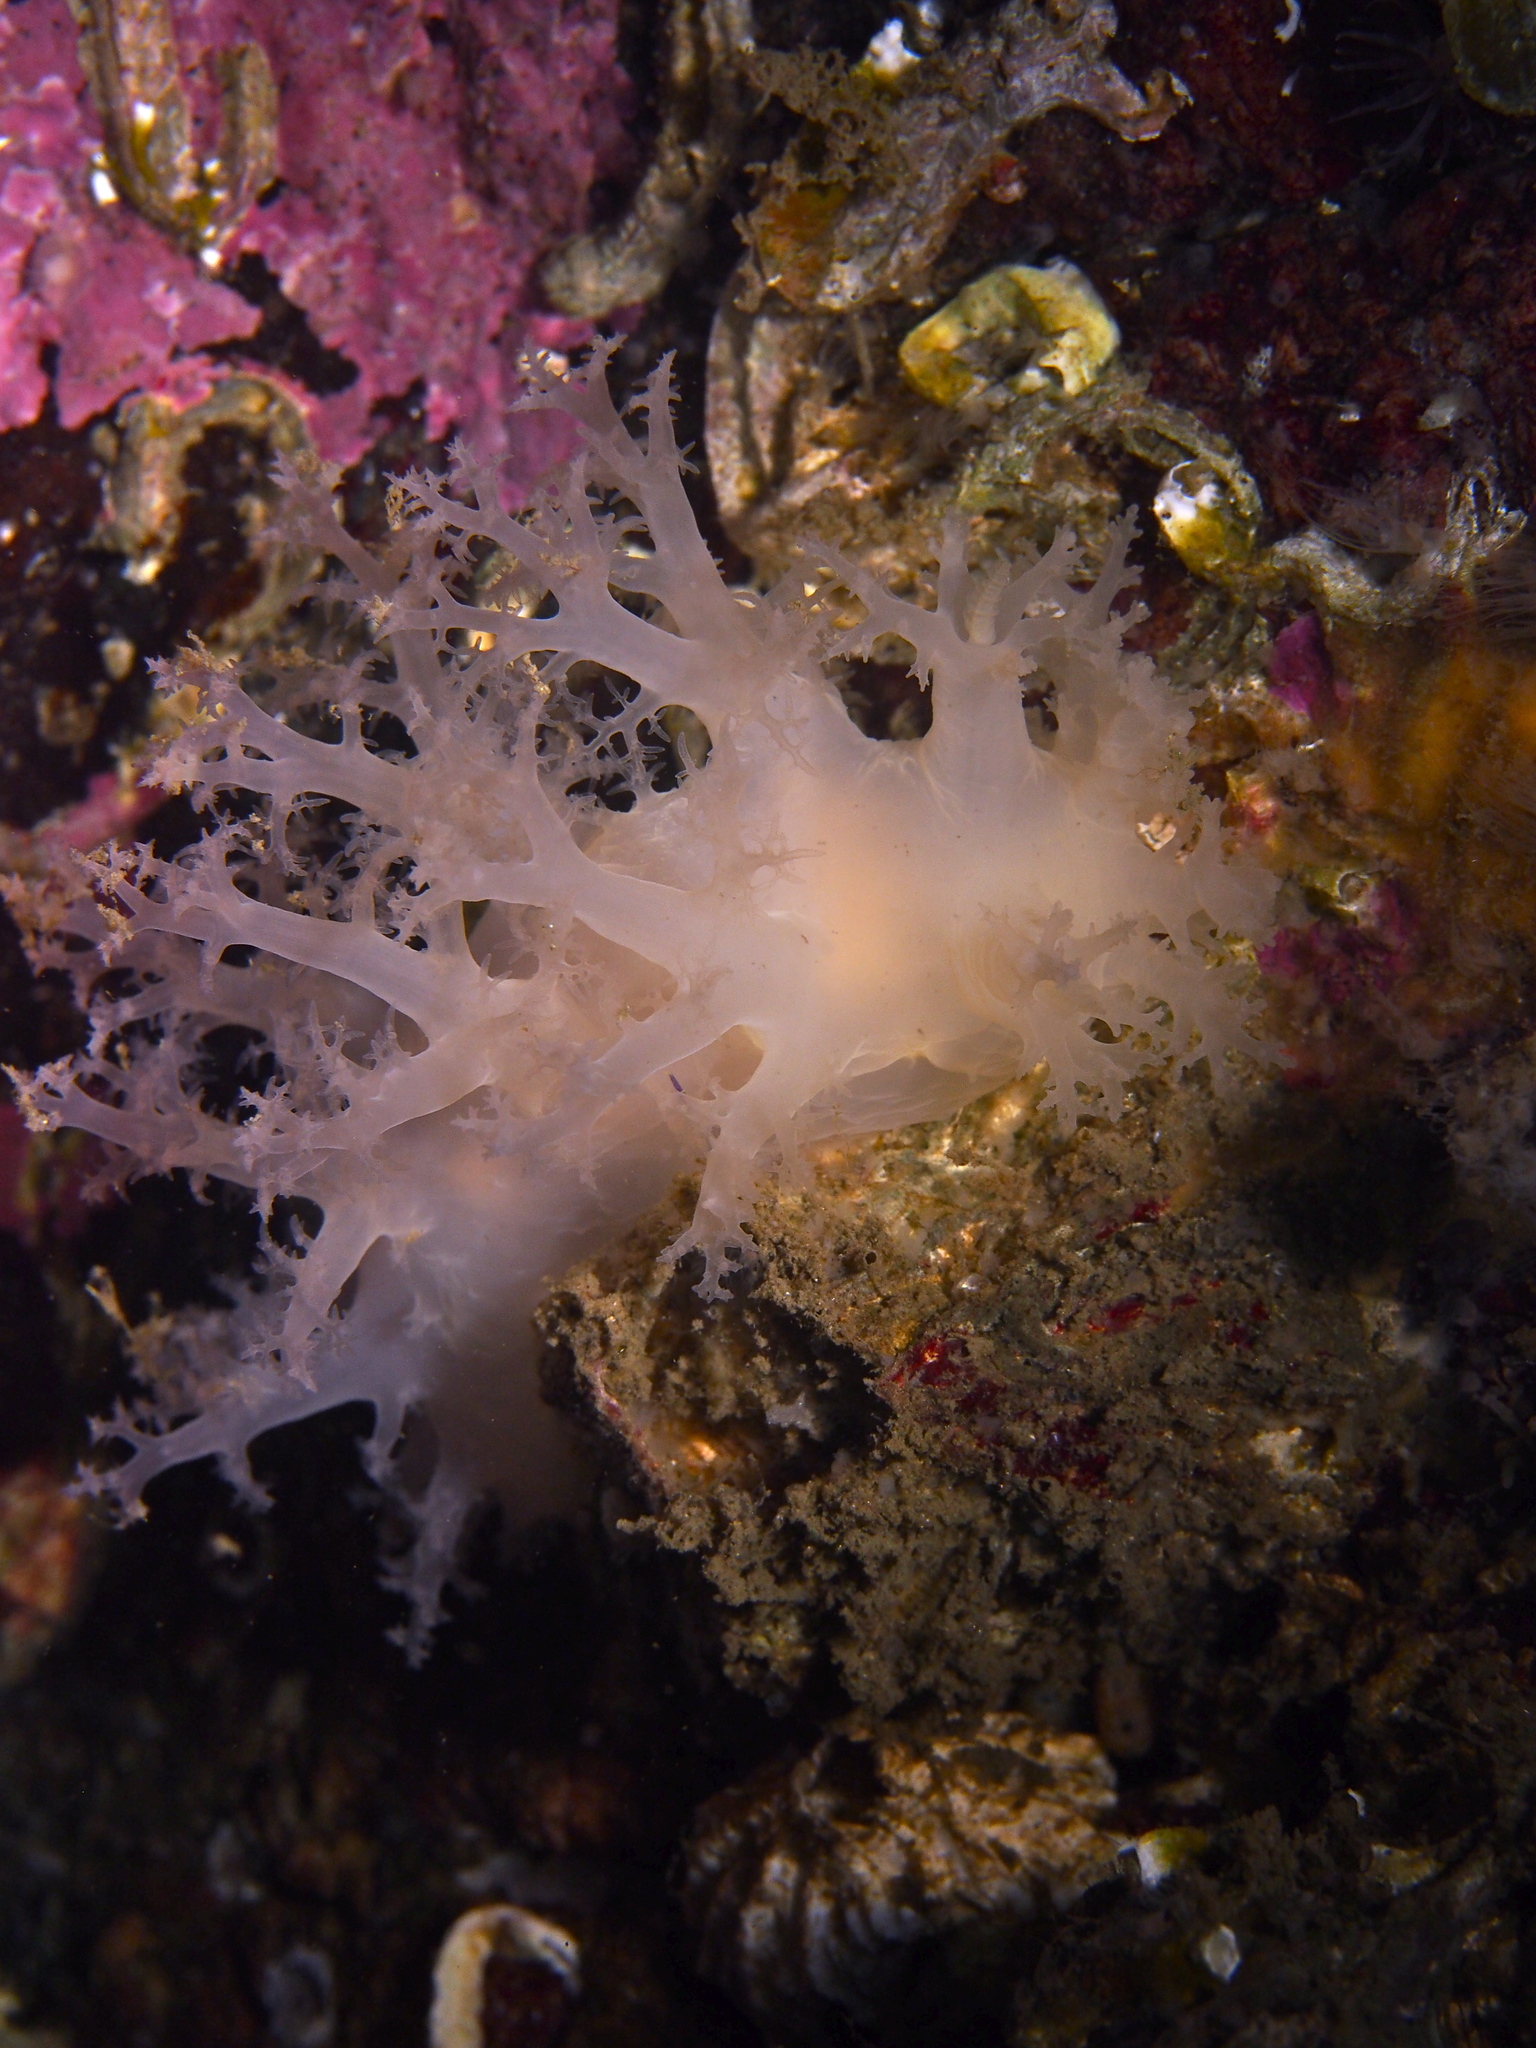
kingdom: Animalia
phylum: Mollusca
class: Gastropoda
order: Nudibranchia
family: Dendronotidae
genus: Dendronotus
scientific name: Dendronotus lacteus
